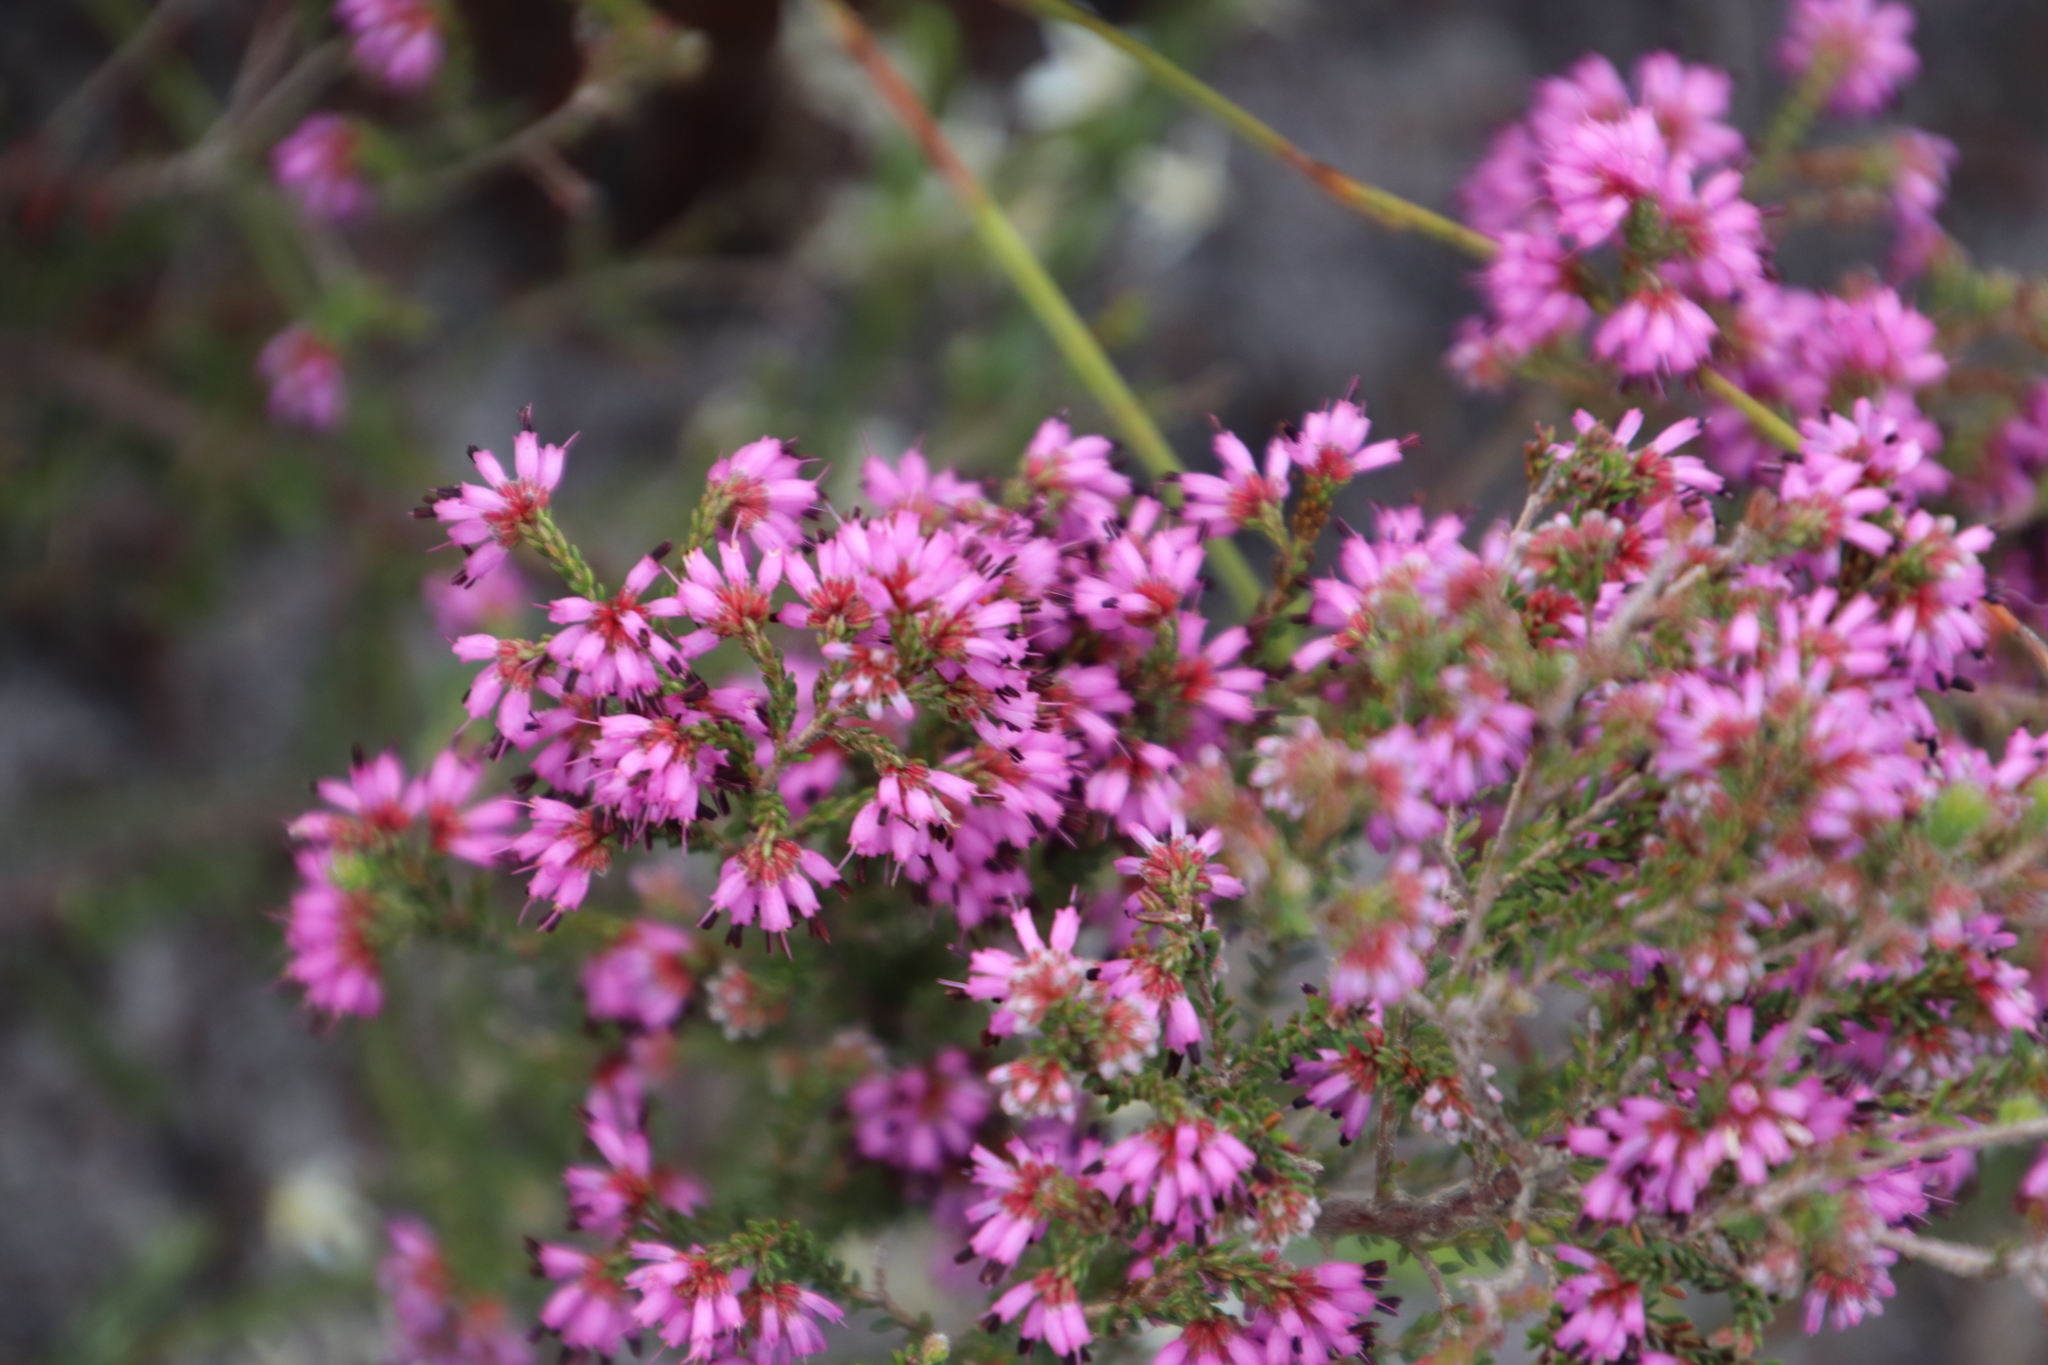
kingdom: Plantae
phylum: Tracheophyta
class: Magnoliopsida
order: Ericales
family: Ericaceae
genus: Erica
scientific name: Erica glabella
